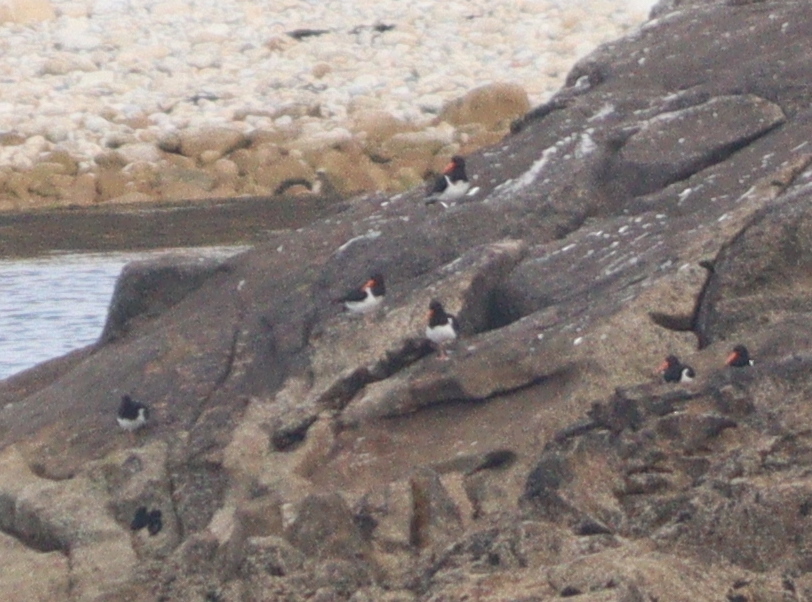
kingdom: Animalia
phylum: Chordata
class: Aves
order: Charadriiformes
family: Haematopodidae
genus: Haematopus
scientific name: Haematopus ostralegus
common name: Eurasian oystercatcher
